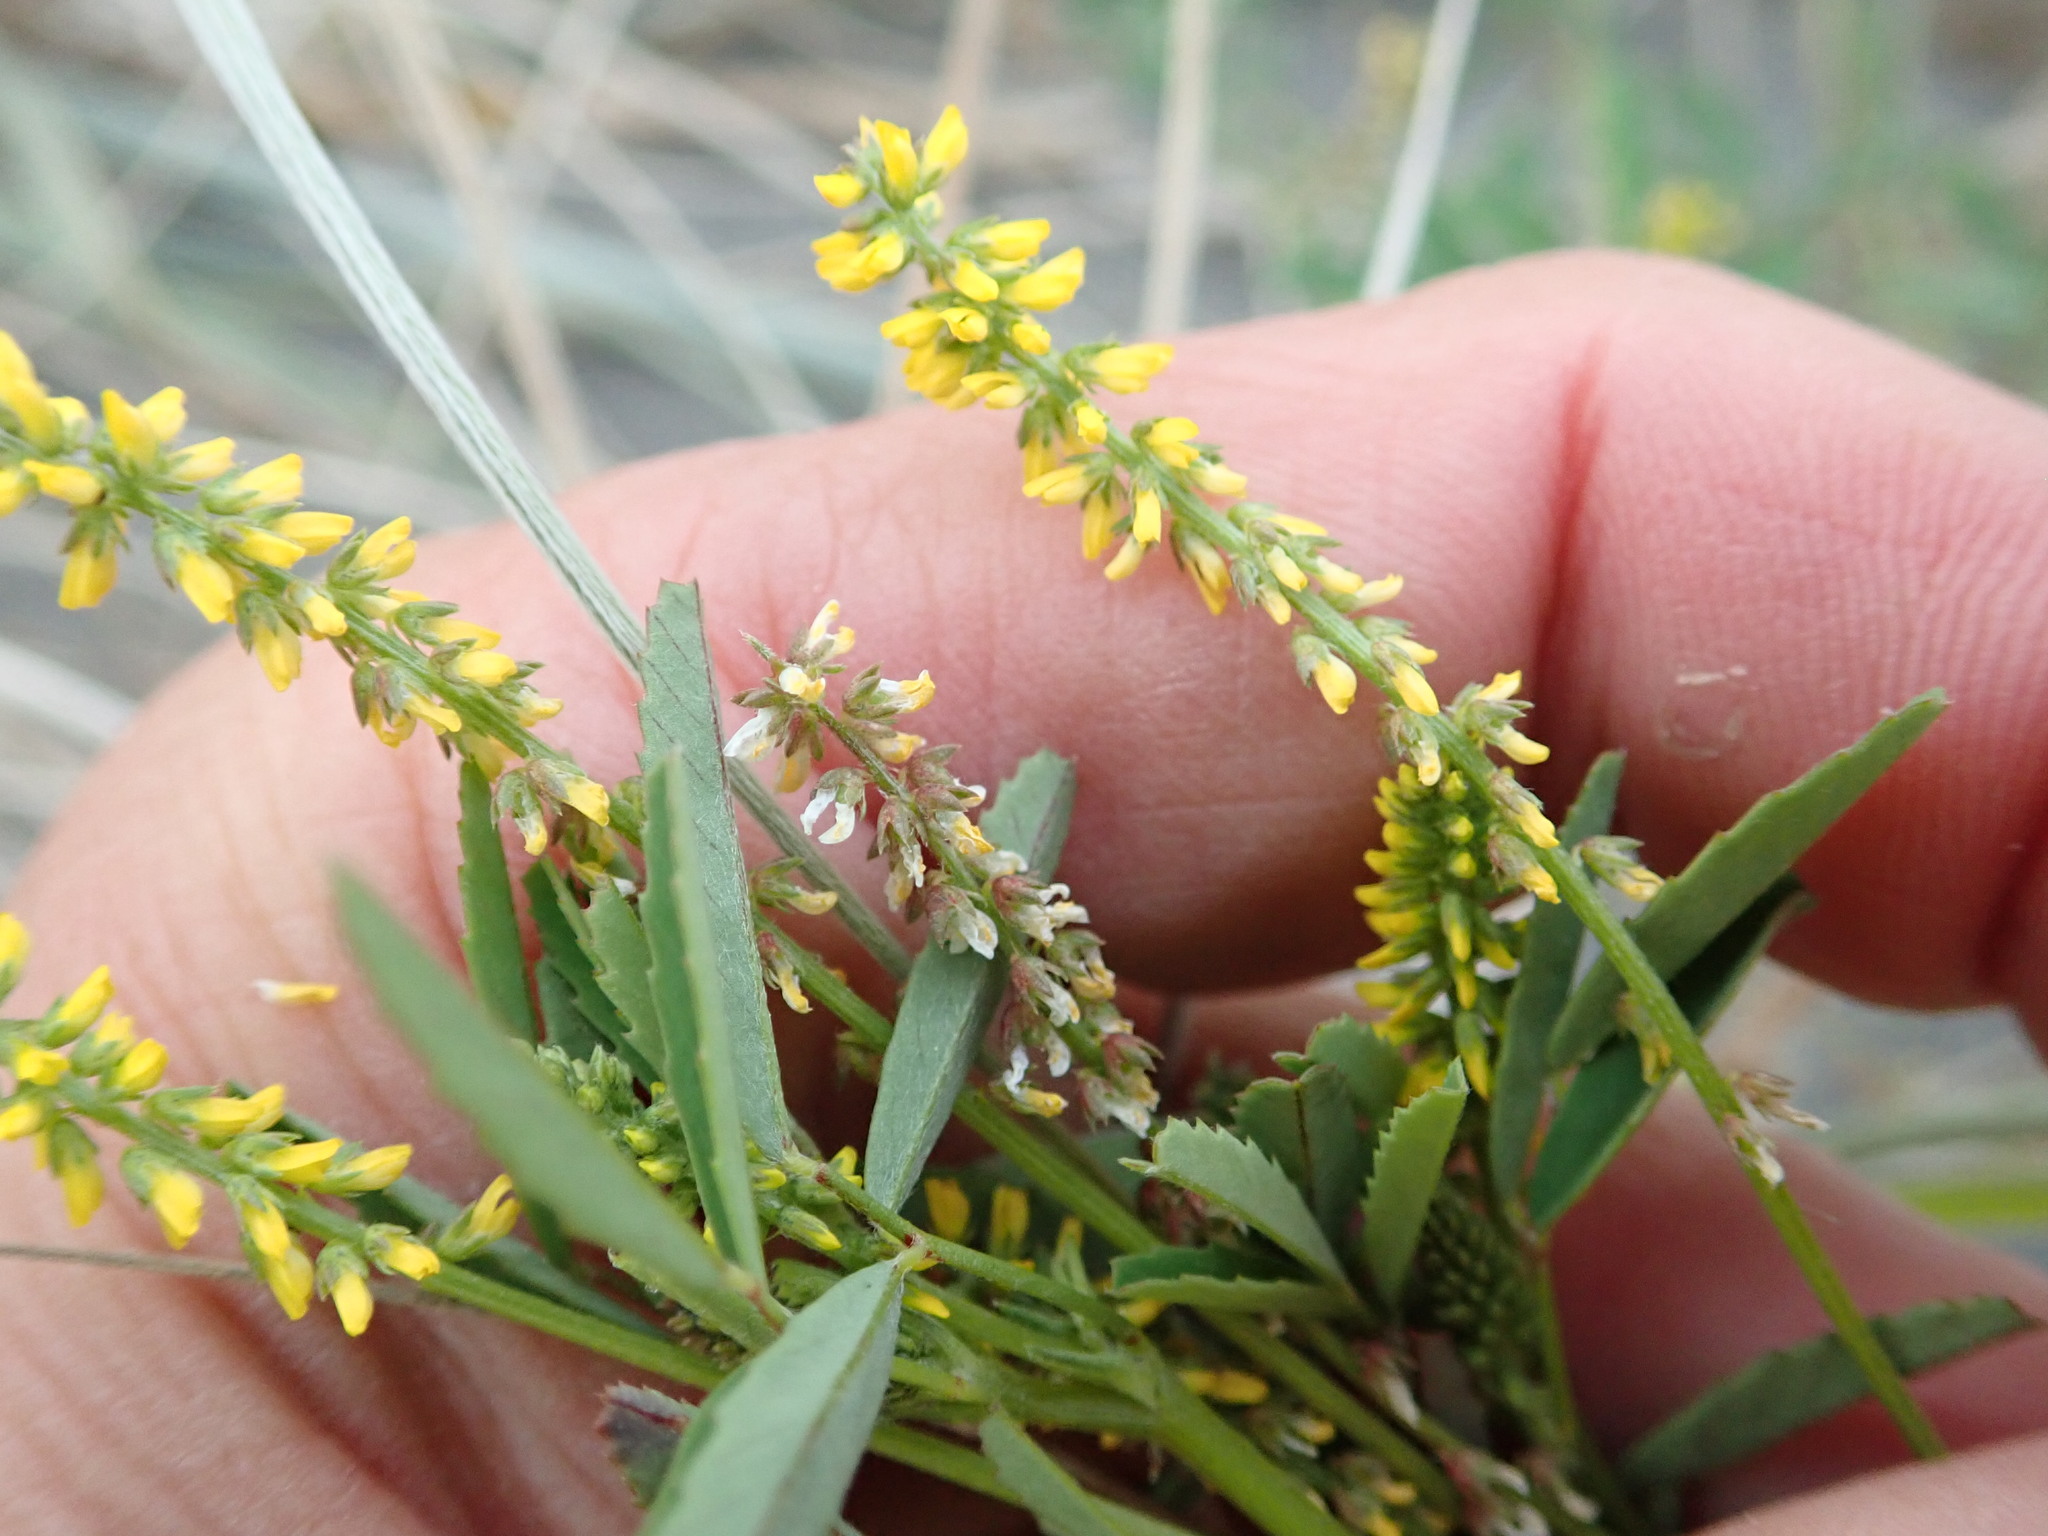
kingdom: Plantae
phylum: Tracheophyta
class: Magnoliopsida
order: Fabales
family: Fabaceae
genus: Melilotus
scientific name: Melilotus indicus
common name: Small melilot
